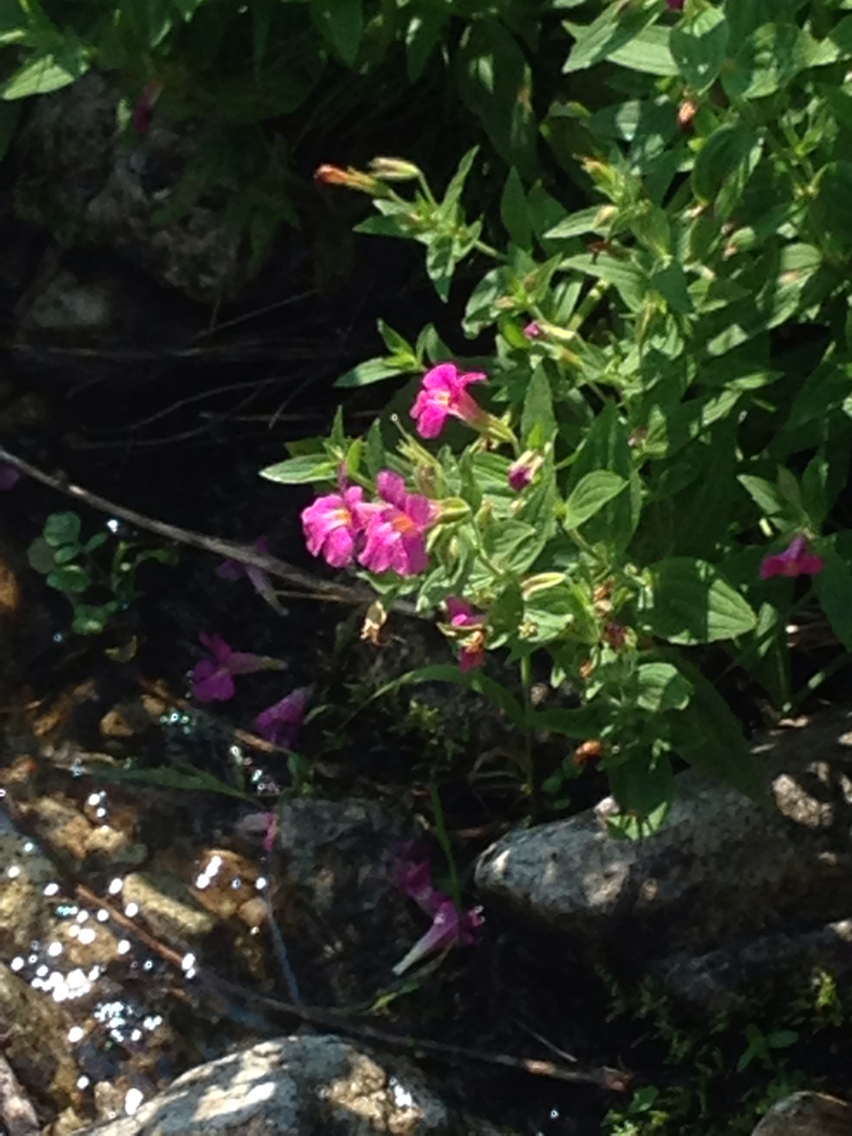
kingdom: Plantae
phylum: Tracheophyta
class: Magnoliopsida
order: Lamiales
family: Phrymaceae
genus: Erythranthe
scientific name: Erythranthe lewisii
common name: Lewis's monkey-flower
